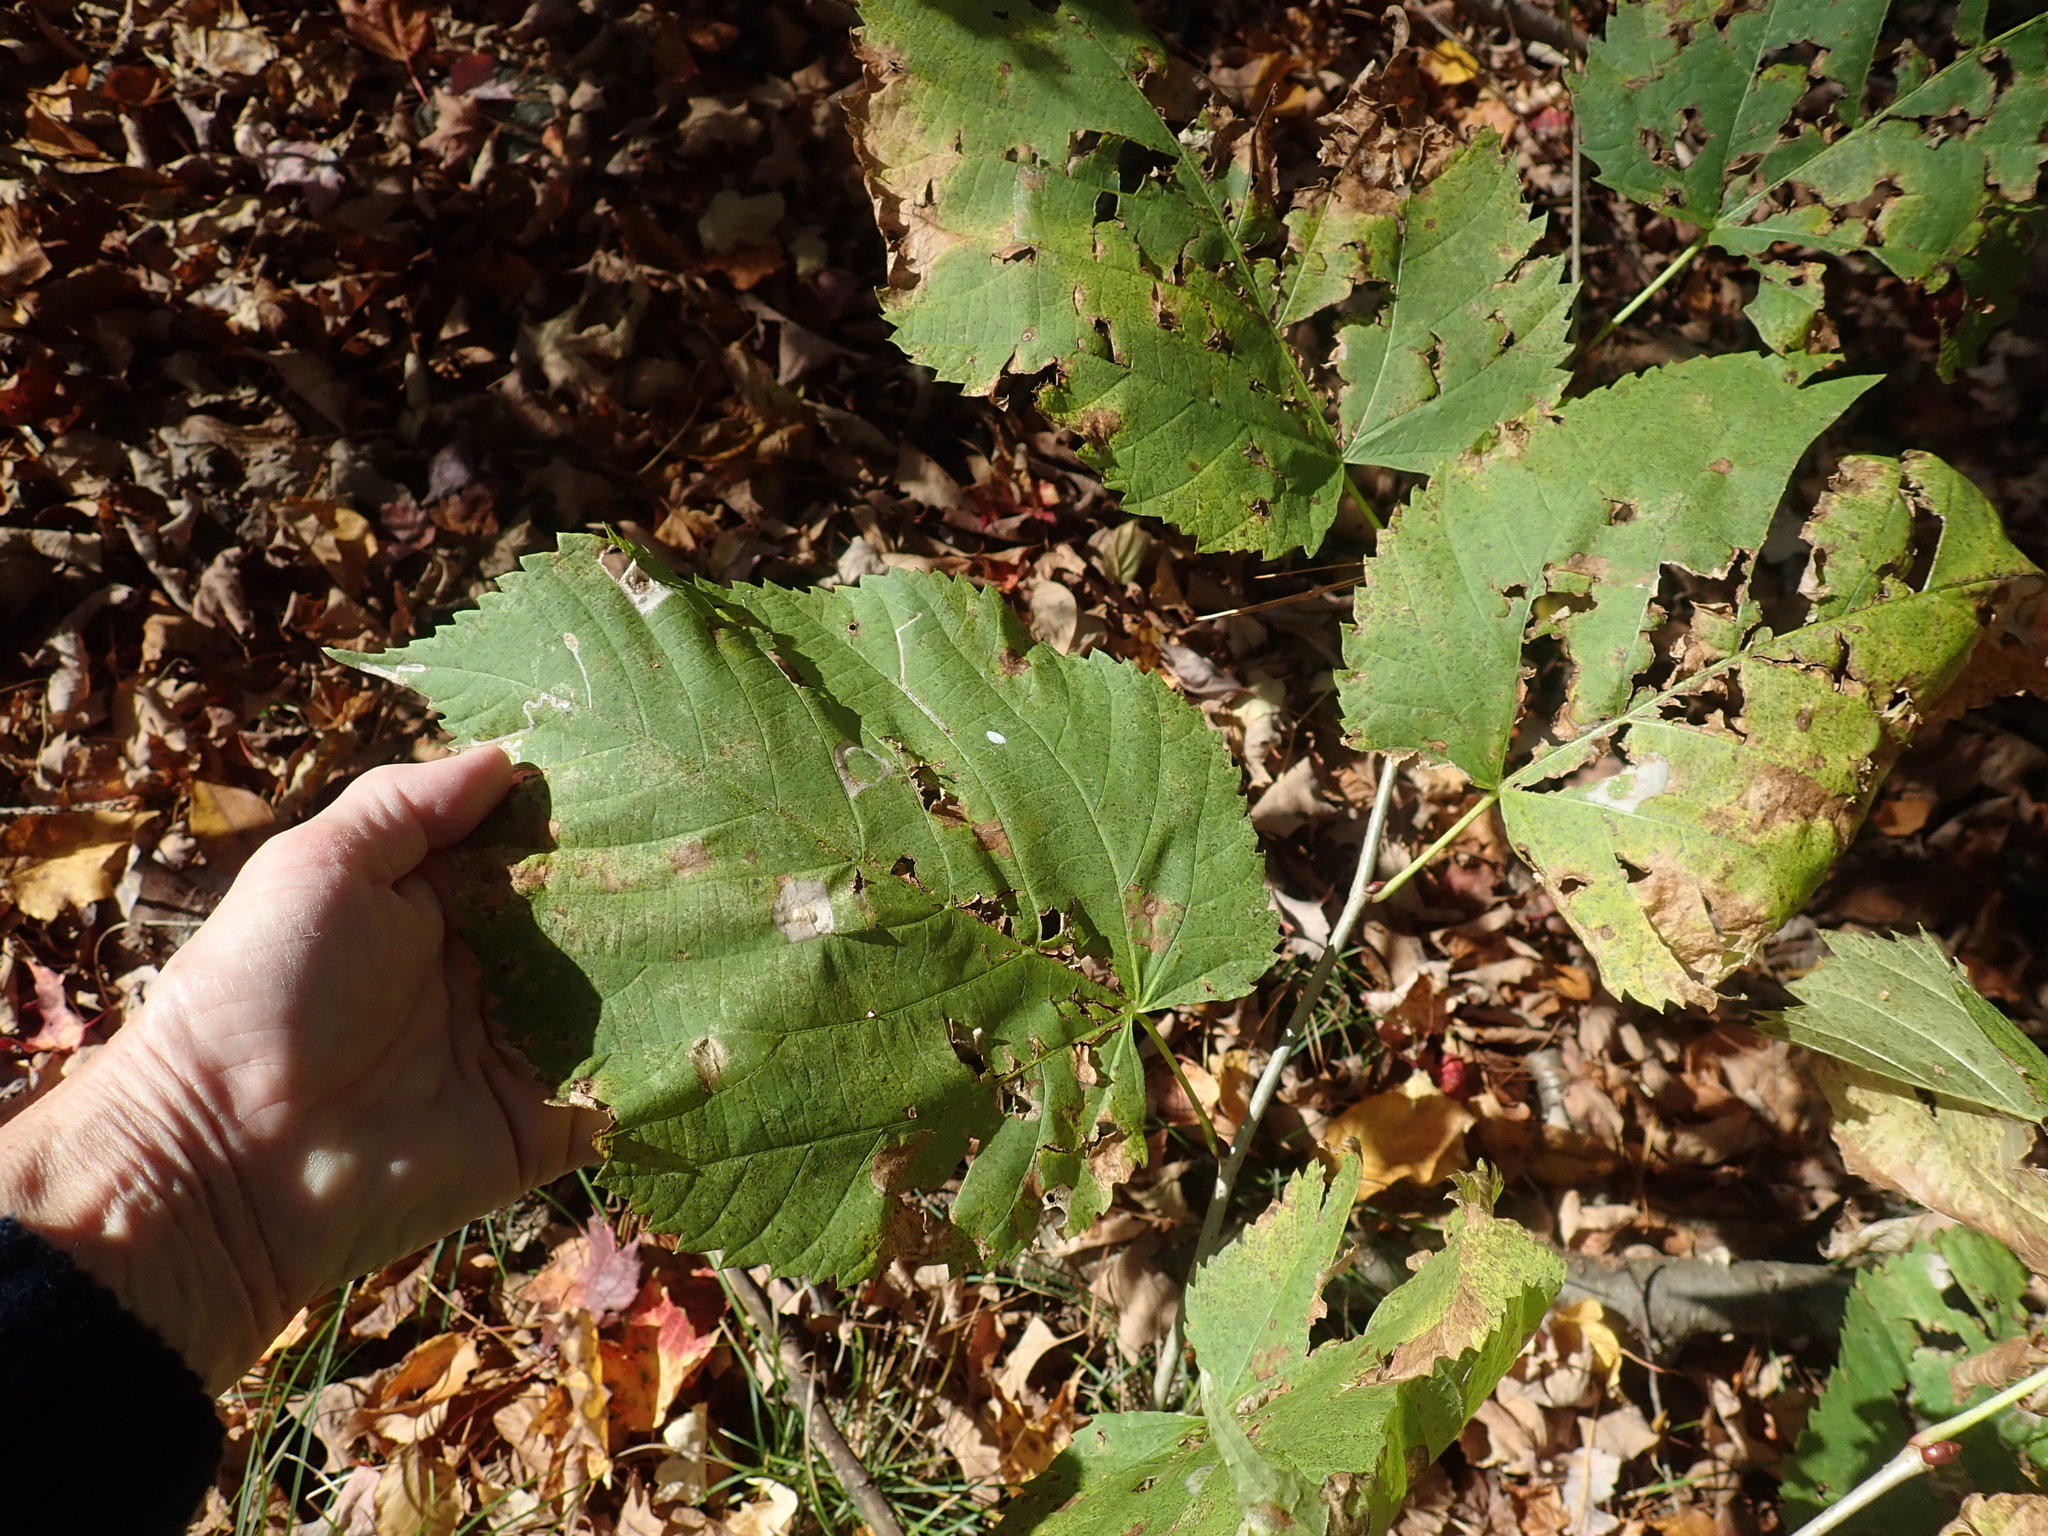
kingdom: Plantae
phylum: Tracheophyta
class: Magnoliopsida
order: Malvales
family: Malvaceae
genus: Tilia
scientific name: Tilia americana
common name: Basswood
